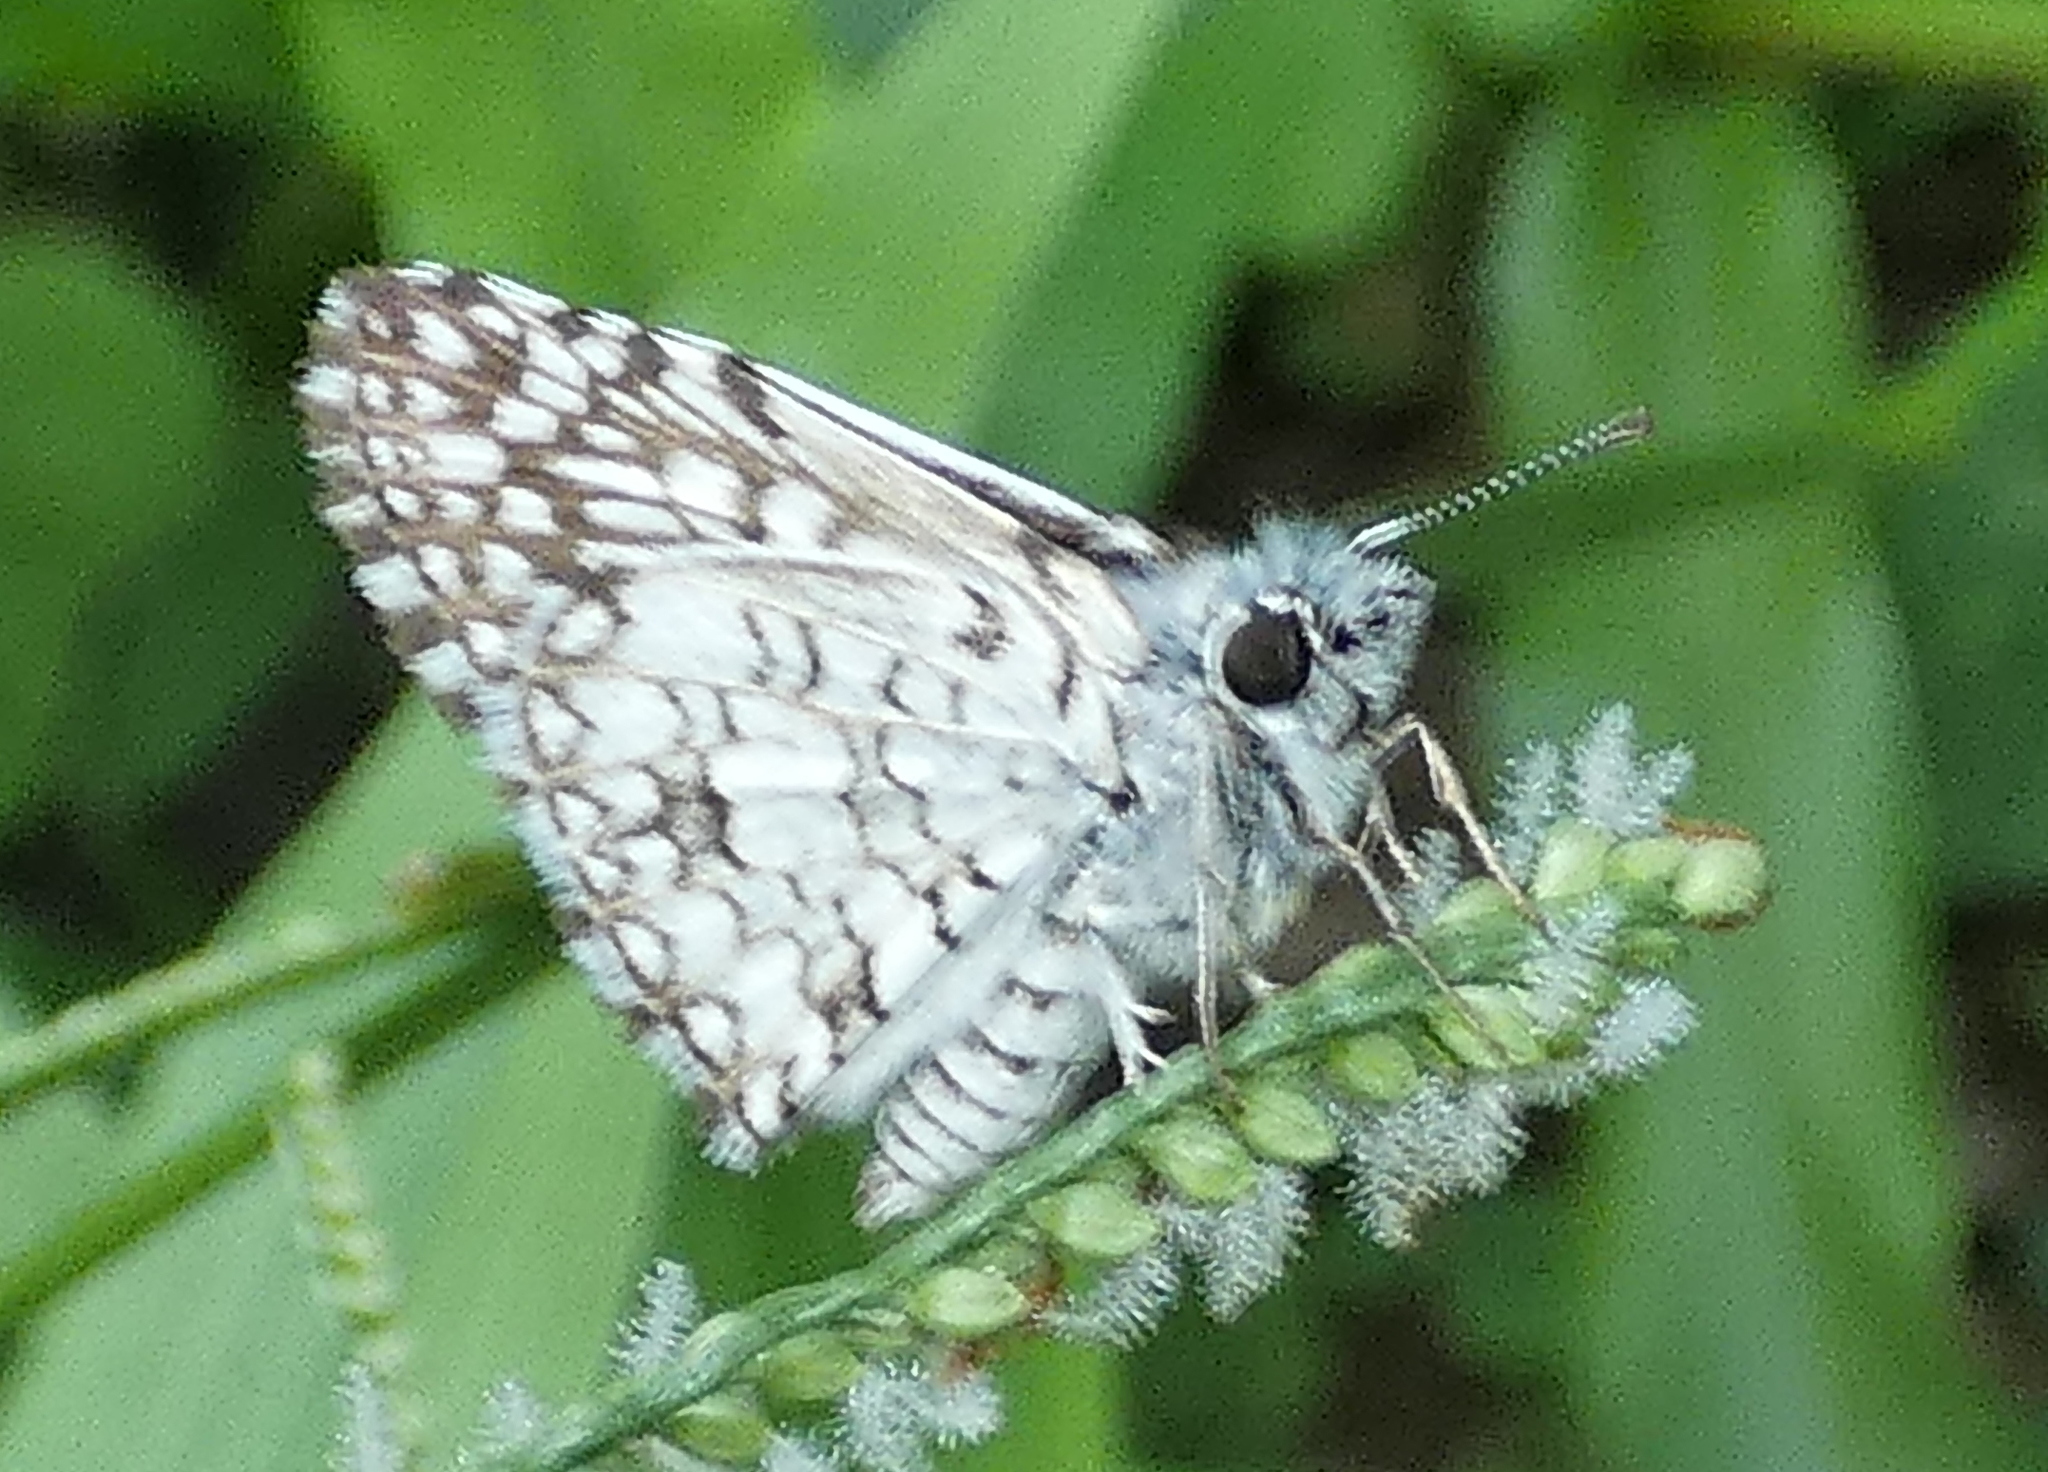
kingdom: Animalia
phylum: Arthropoda
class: Insecta
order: Lepidoptera
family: Hesperiidae
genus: Pyrgus
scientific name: Pyrgus oileus
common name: Tropical checkered-skipper
